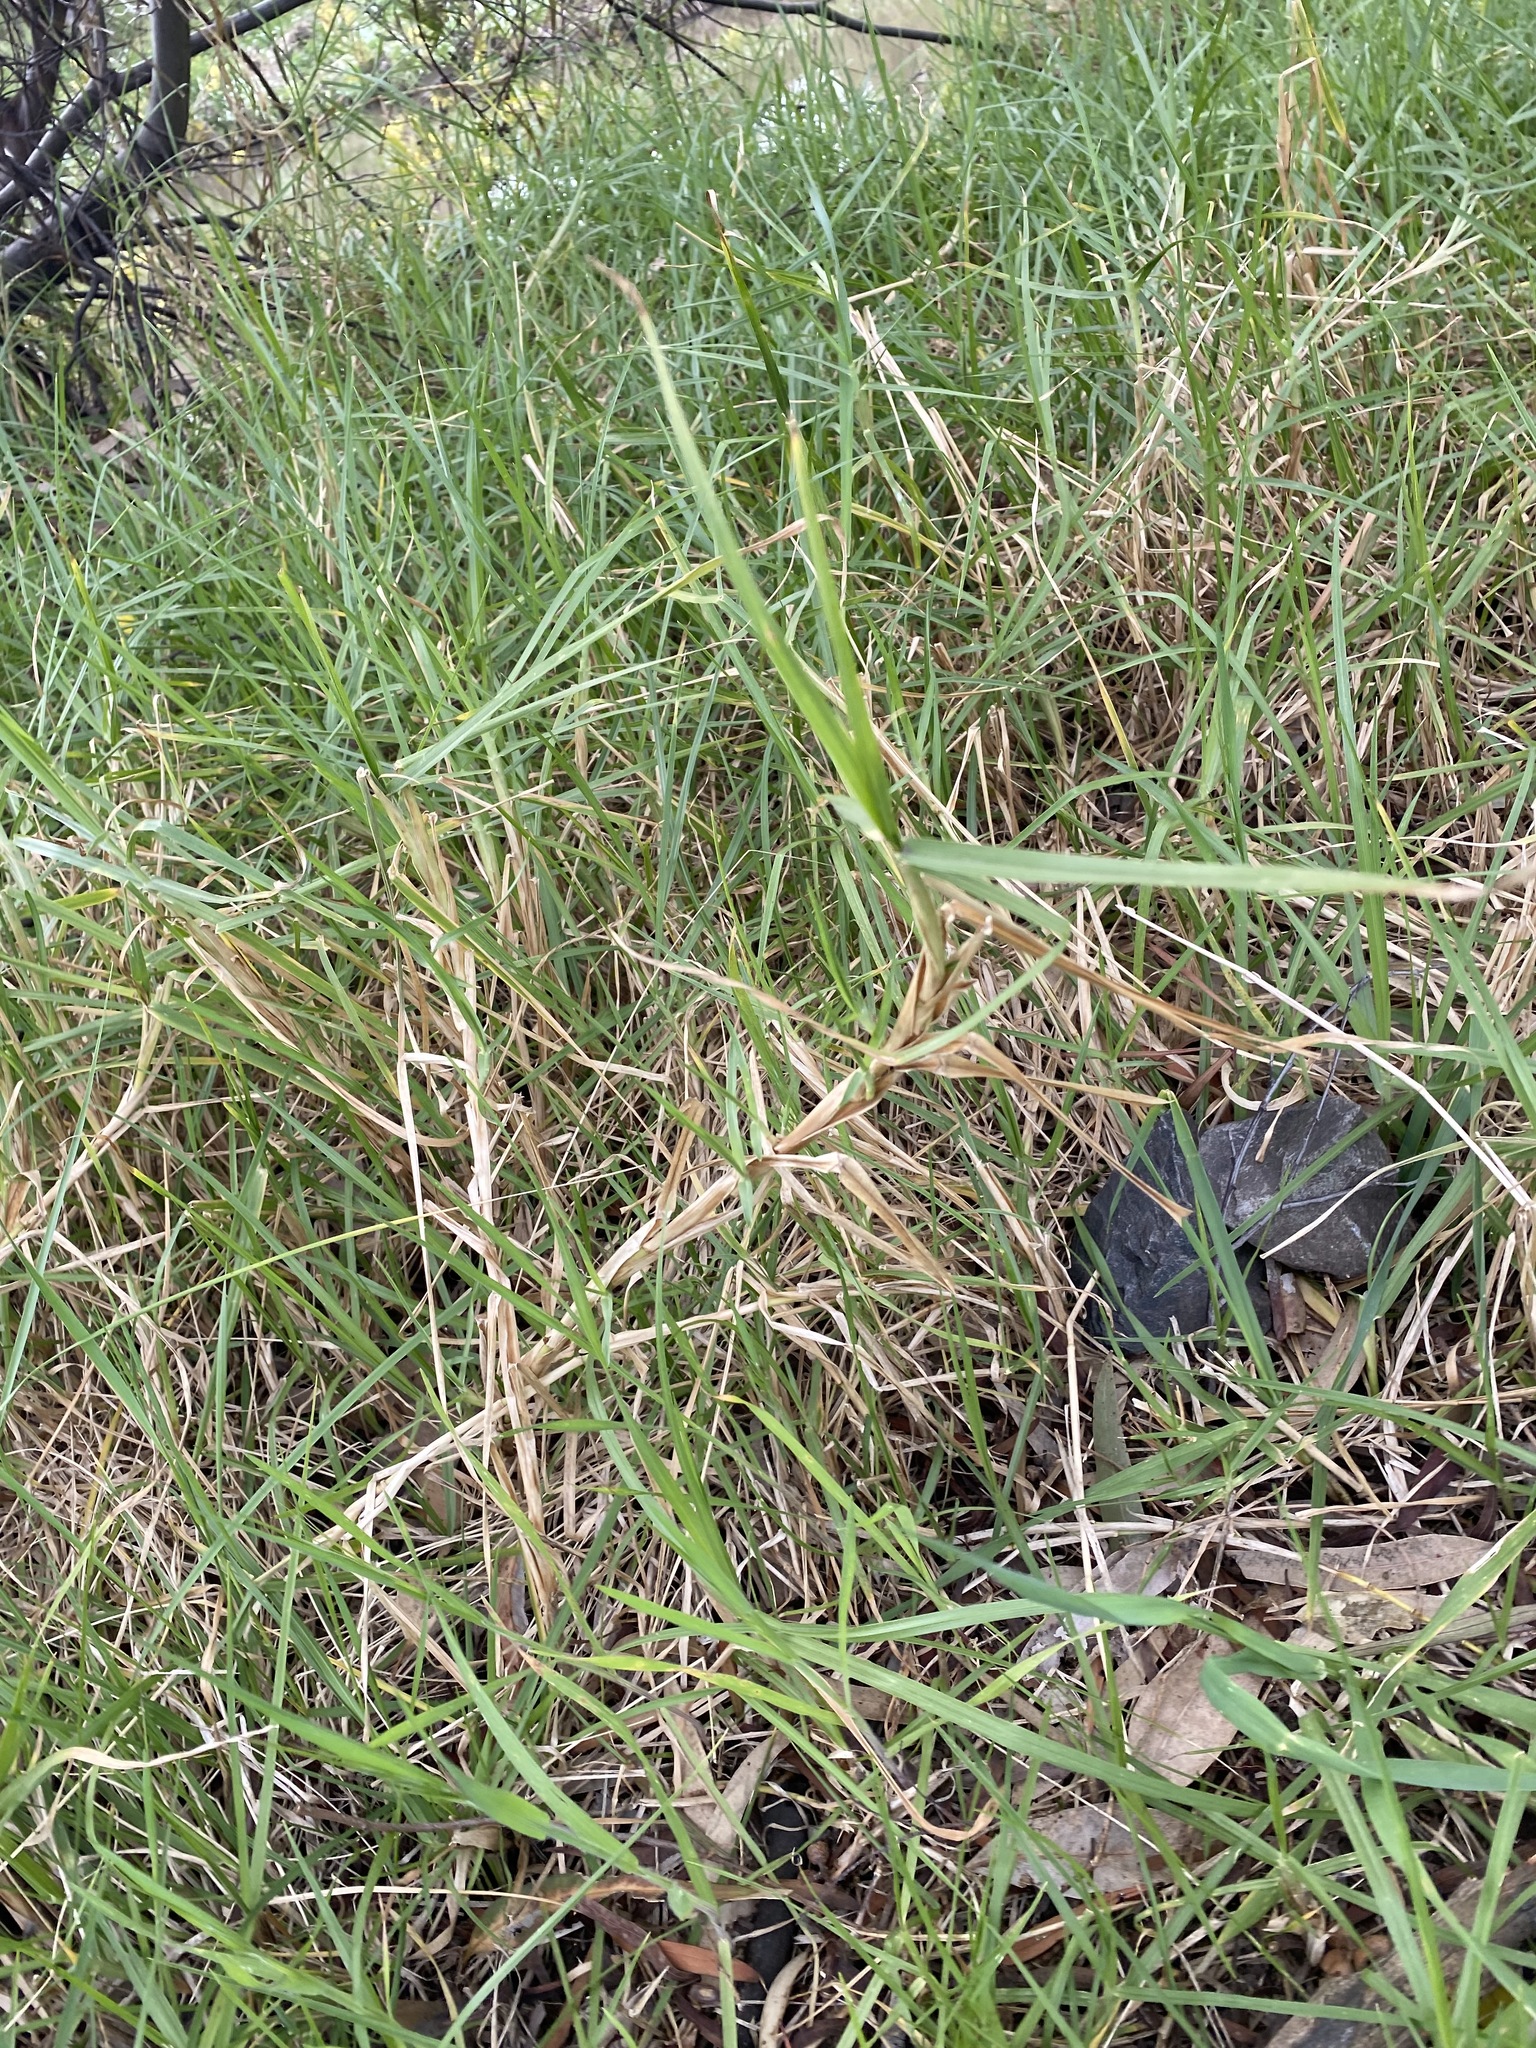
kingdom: Plantae
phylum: Tracheophyta
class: Liliopsida
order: Poales
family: Poaceae
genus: Cenchrus
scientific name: Cenchrus clandestinus
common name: Kikuyugrass
